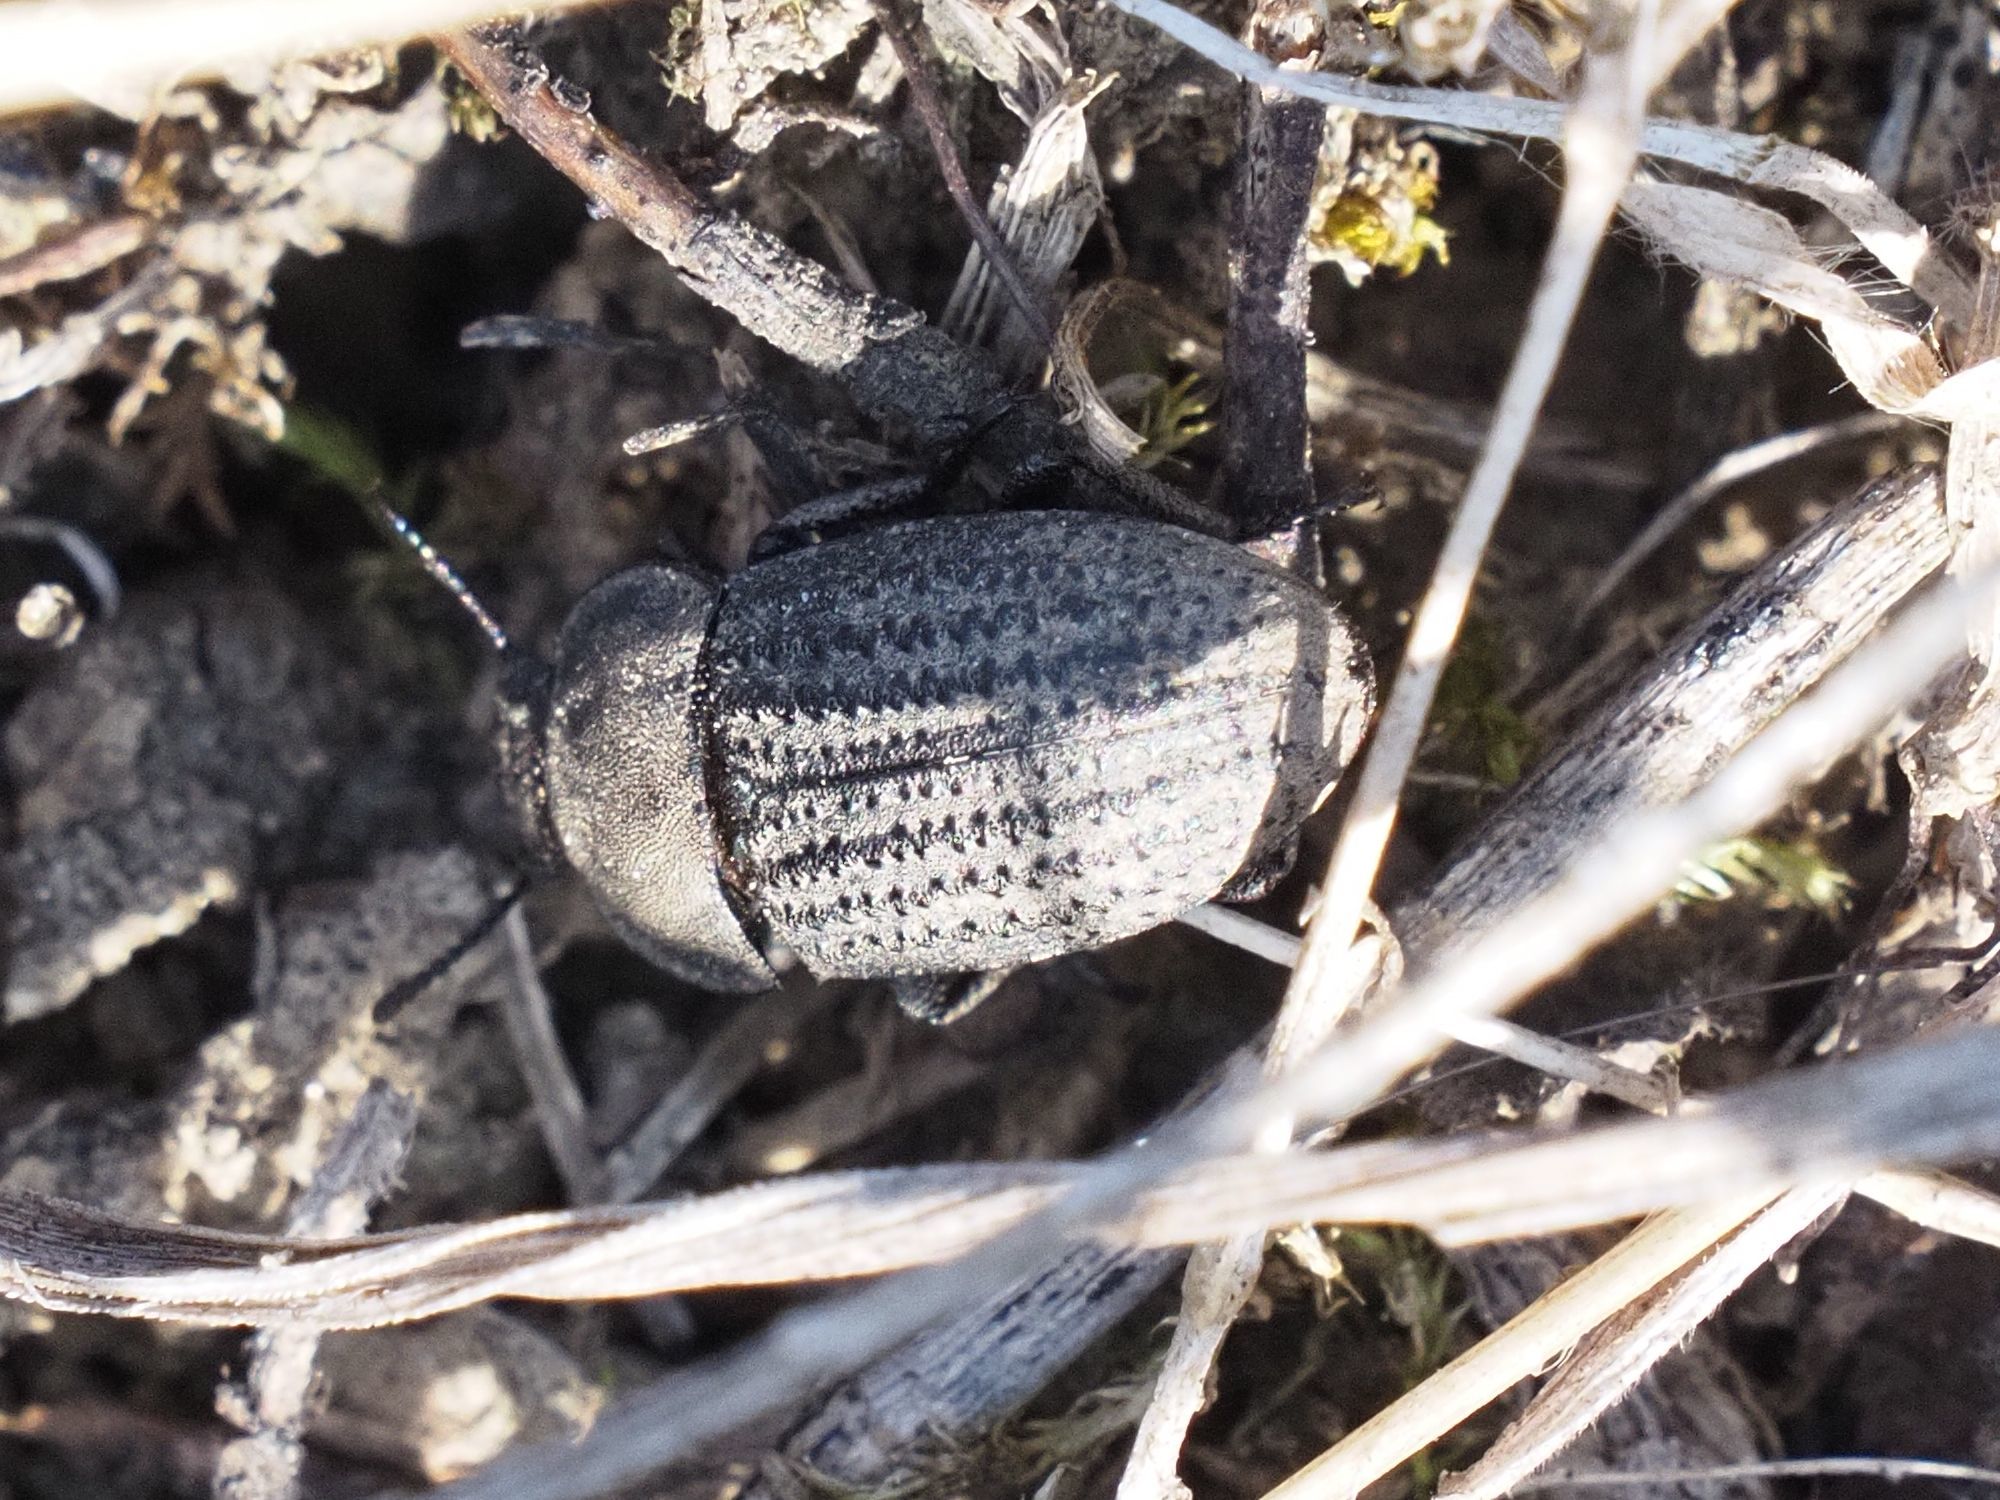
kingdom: Animalia
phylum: Arthropoda
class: Insecta
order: Coleoptera
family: Tenebrionidae
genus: Opatrum
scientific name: Opatrum sabulosum
